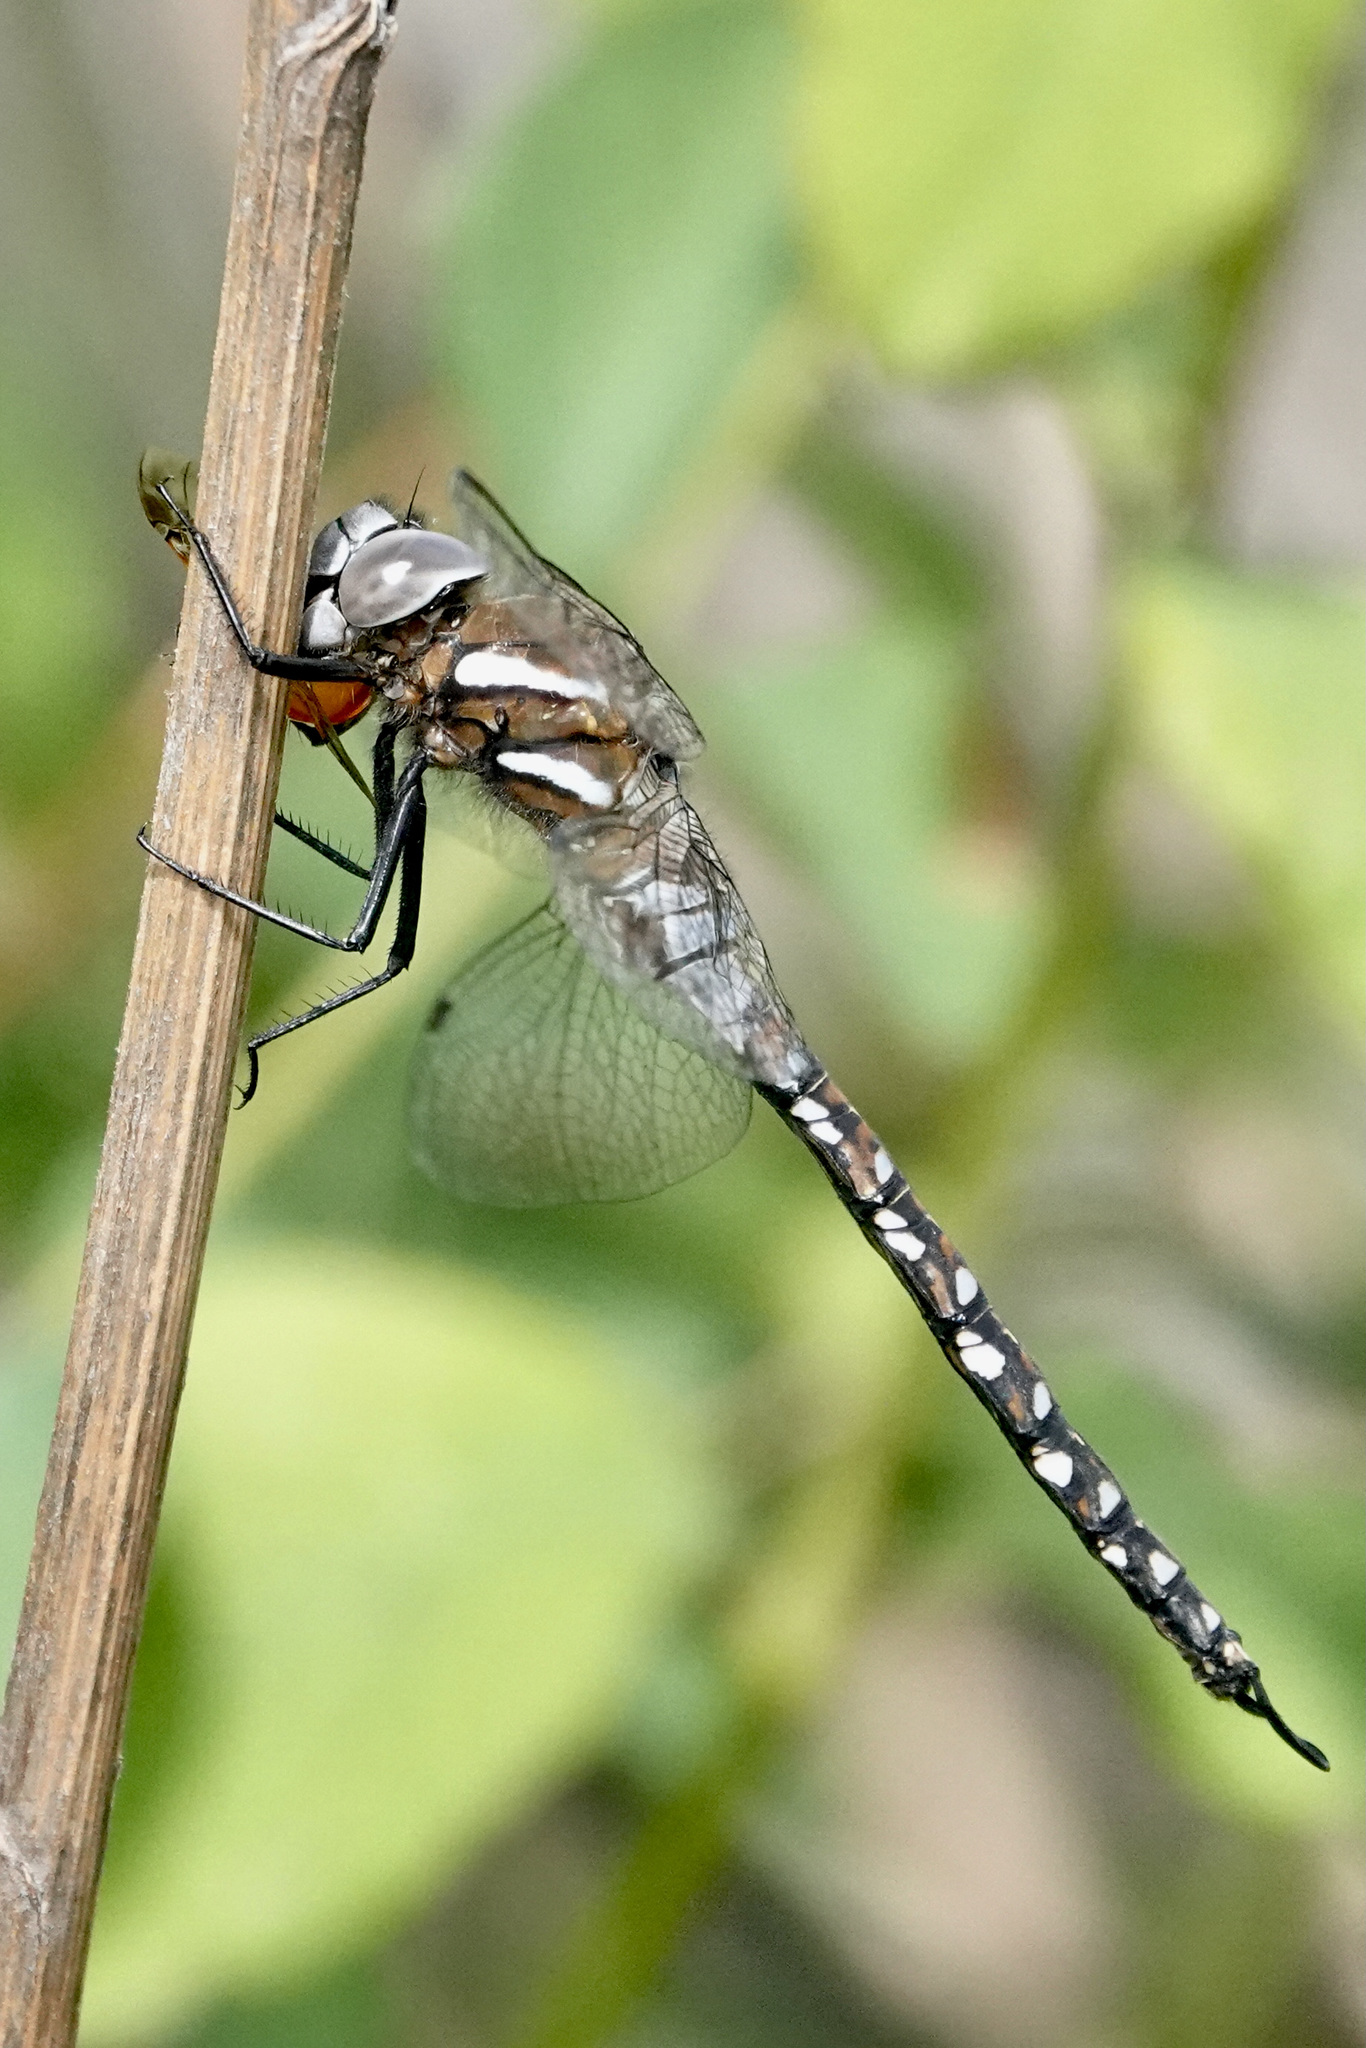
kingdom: Animalia
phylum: Arthropoda
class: Insecta
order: Odonata
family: Aeshnidae
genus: Rhionaeschna
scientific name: Rhionaeschna californica
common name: California darner
